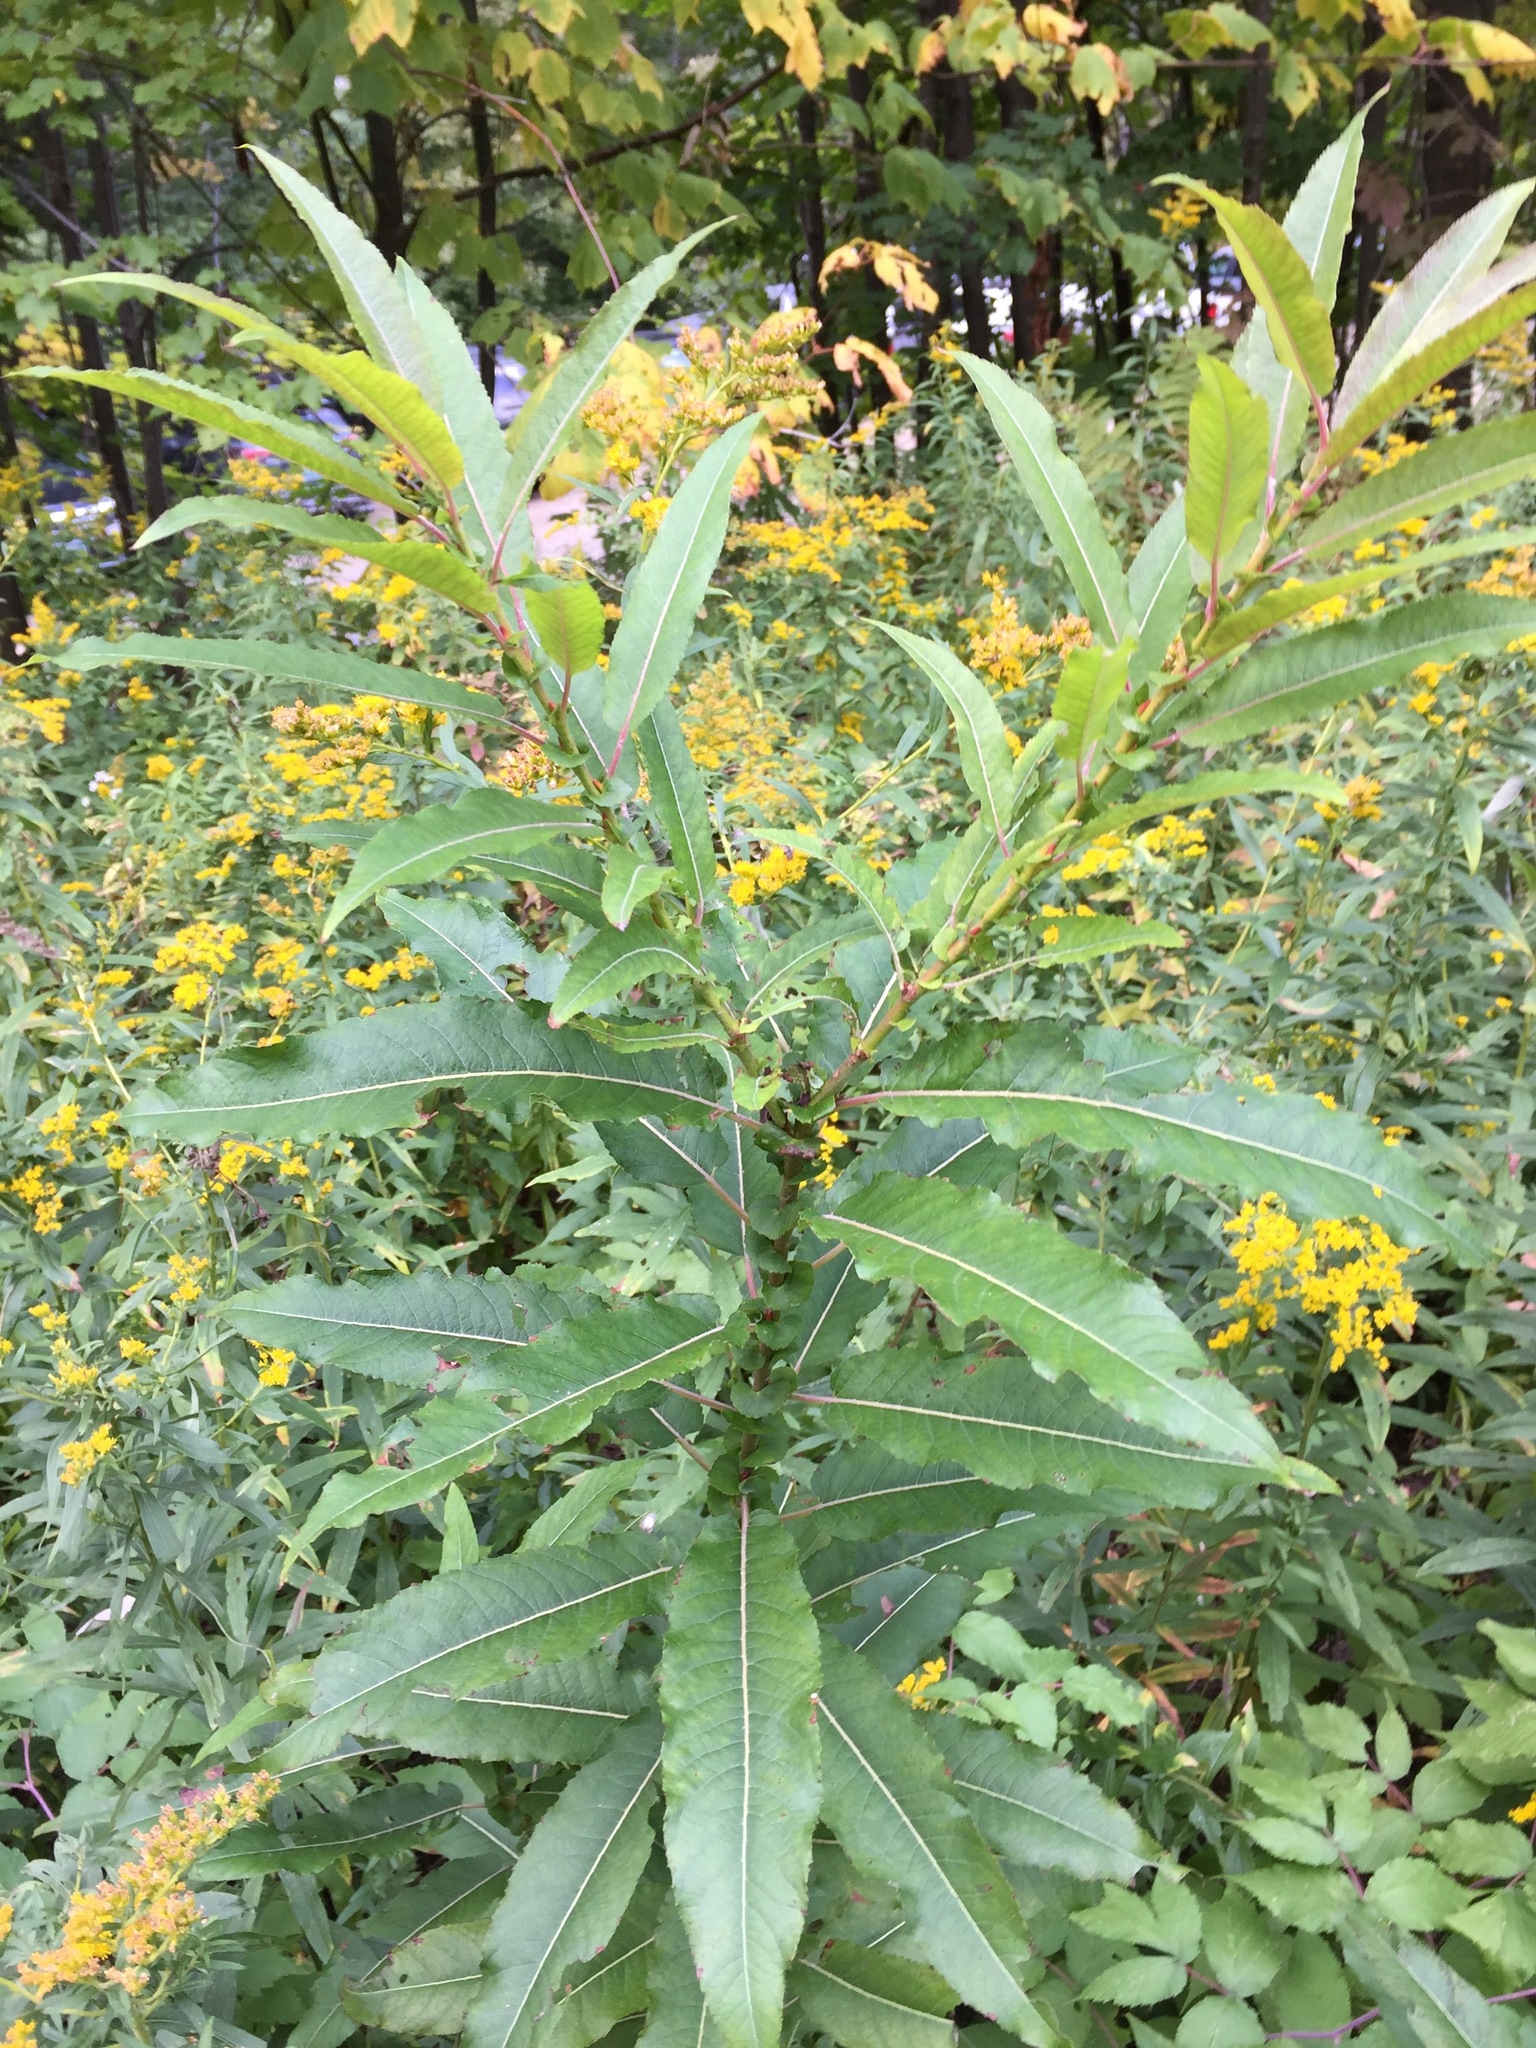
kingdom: Plantae
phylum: Tracheophyta
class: Magnoliopsida
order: Malpighiales
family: Salicaceae
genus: Salix
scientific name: Salix eriocephala
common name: Heart-leaved willow
